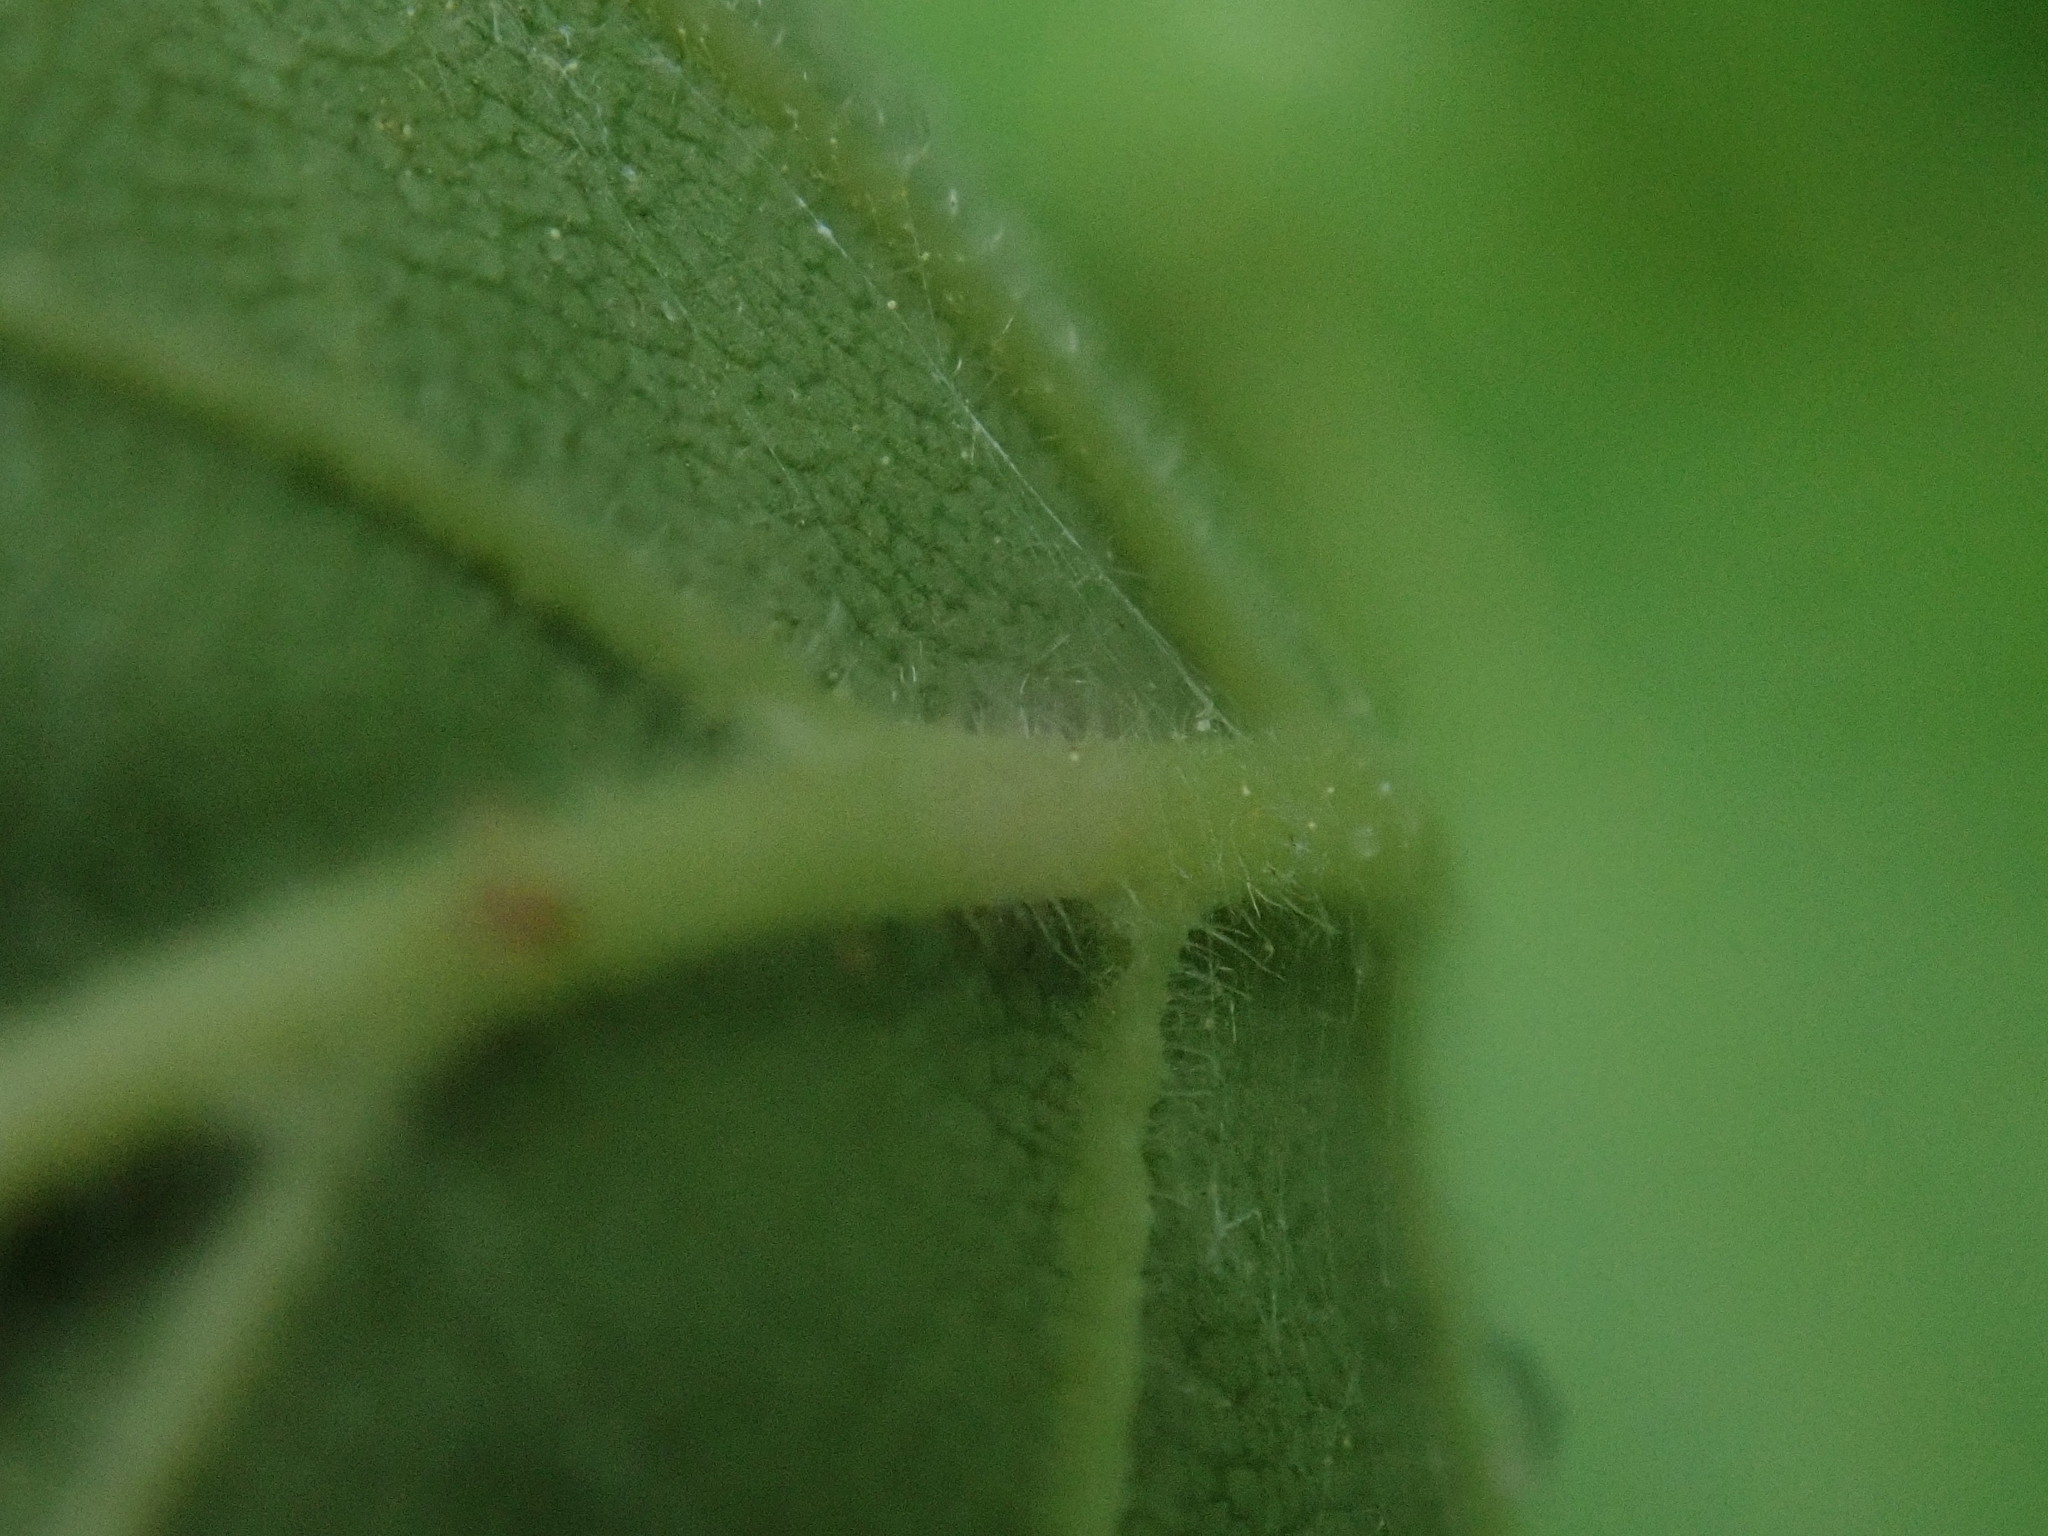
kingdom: Plantae
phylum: Tracheophyta
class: Magnoliopsida
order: Rosales
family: Ulmaceae
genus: Ulmus
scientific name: Ulmus americana
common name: American elm
